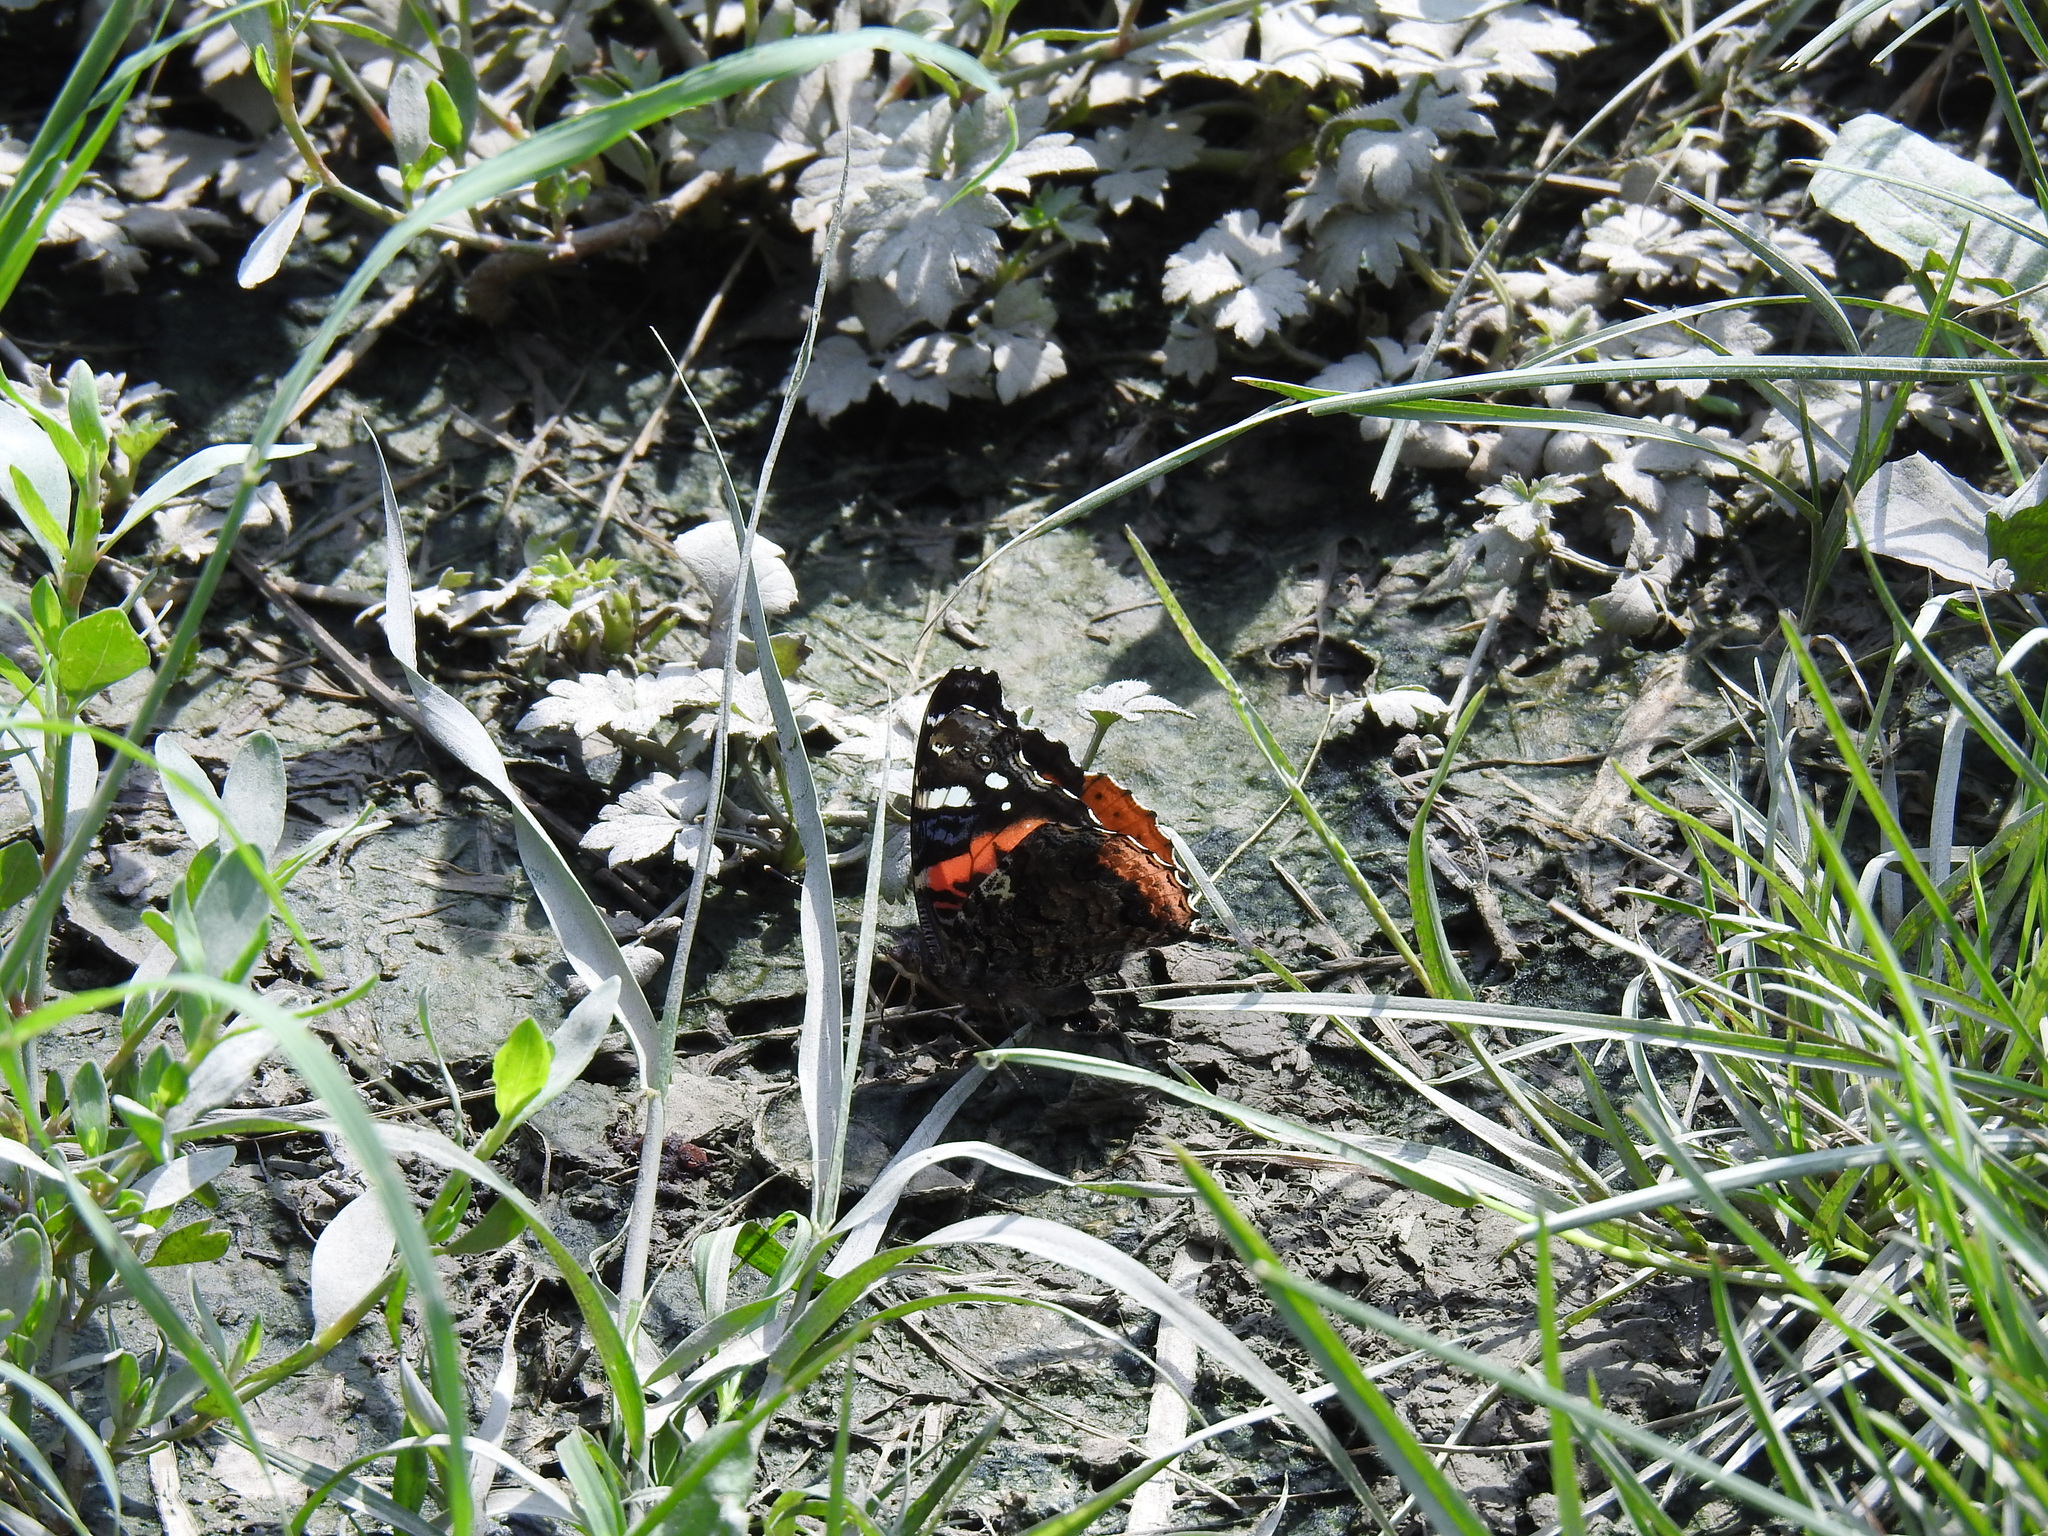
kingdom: Animalia
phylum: Arthropoda
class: Insecta
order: Lepidoptera
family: Nymphalidae
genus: Vanessa
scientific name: Vanessa atalanta
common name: Red admiral
